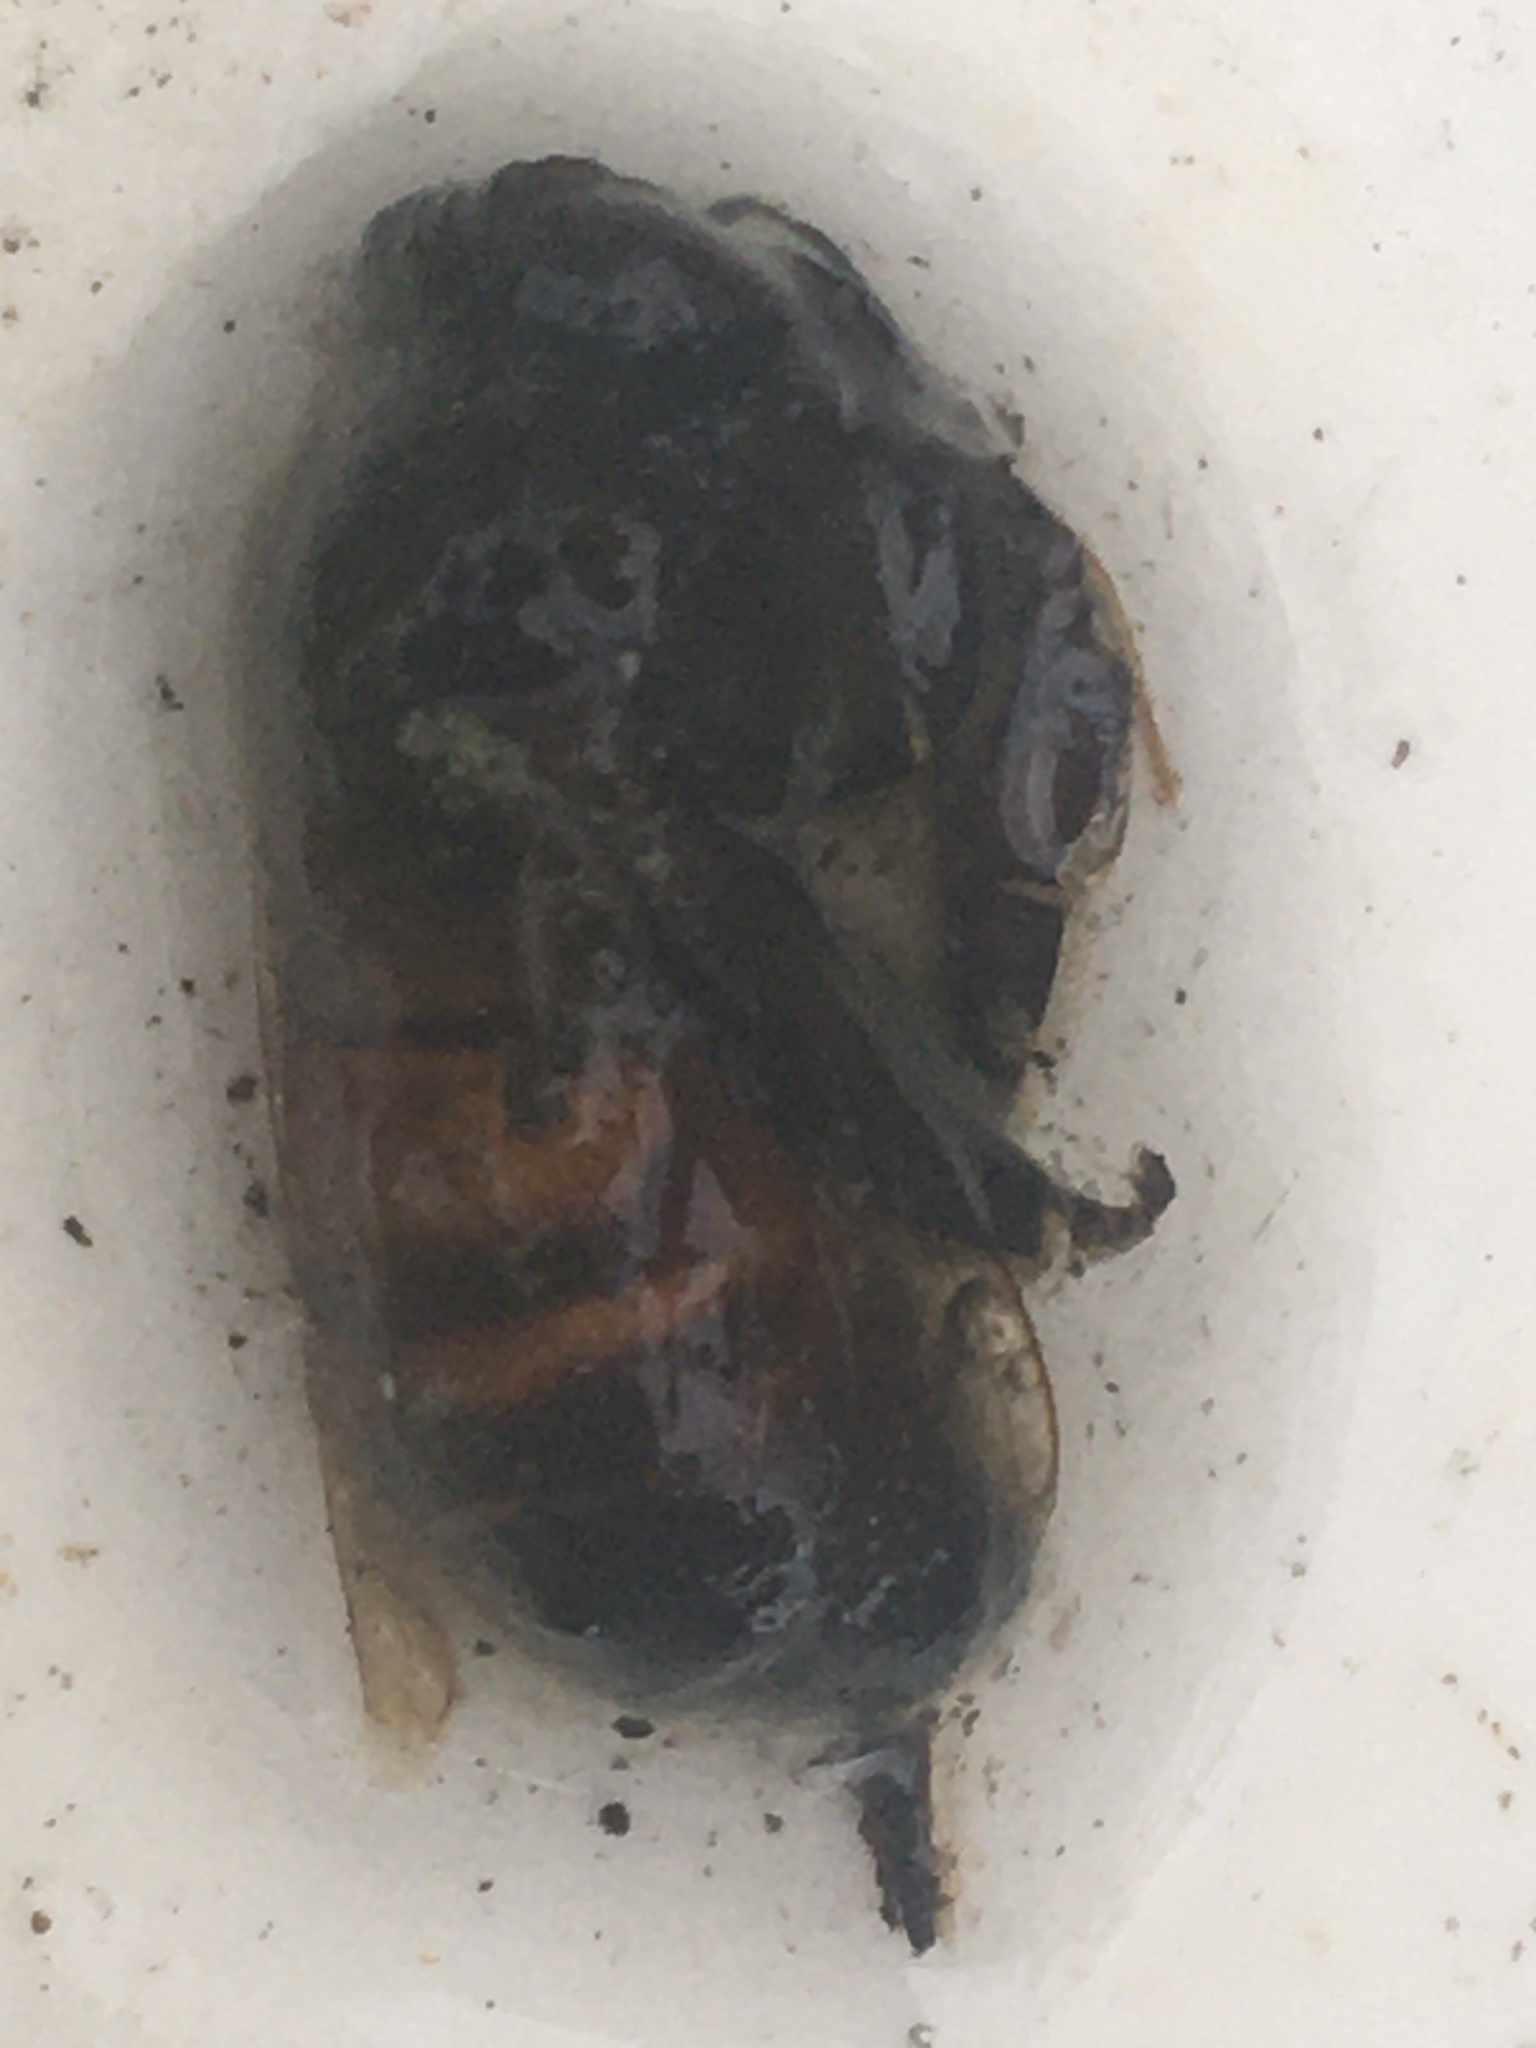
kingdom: Animalia
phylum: Arthropoda
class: Insecta
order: Hymenoptera
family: Apidae
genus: Apis
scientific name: Apis mellifera
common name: Honey bee
